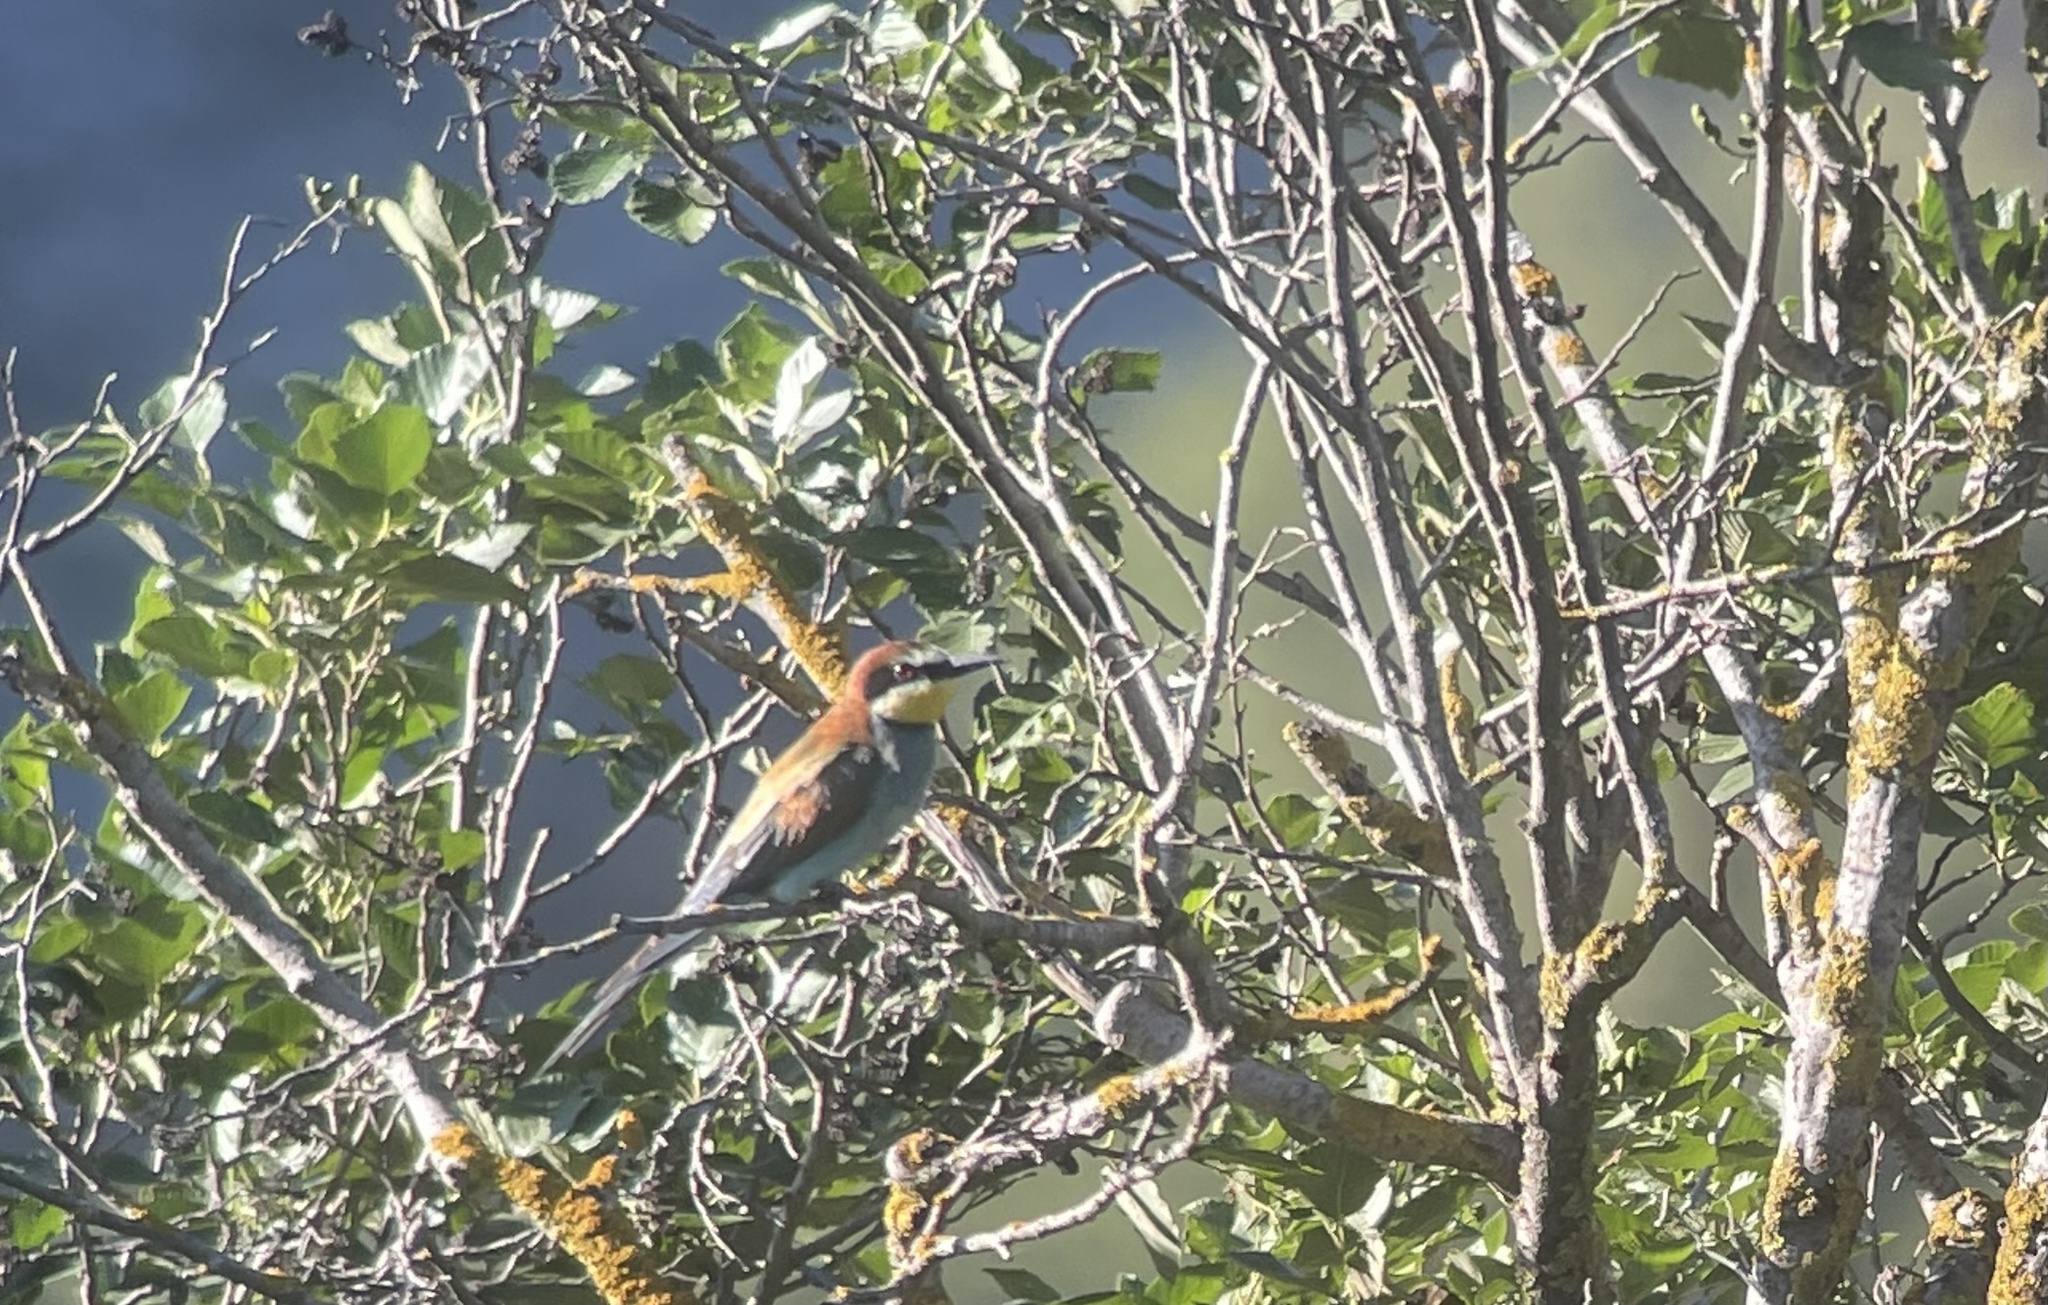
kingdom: Animalia
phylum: Chordata
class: Aves
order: Coraciiformes
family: Meropidae
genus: Merops
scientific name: Merops apiaster
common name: European bee-eater
